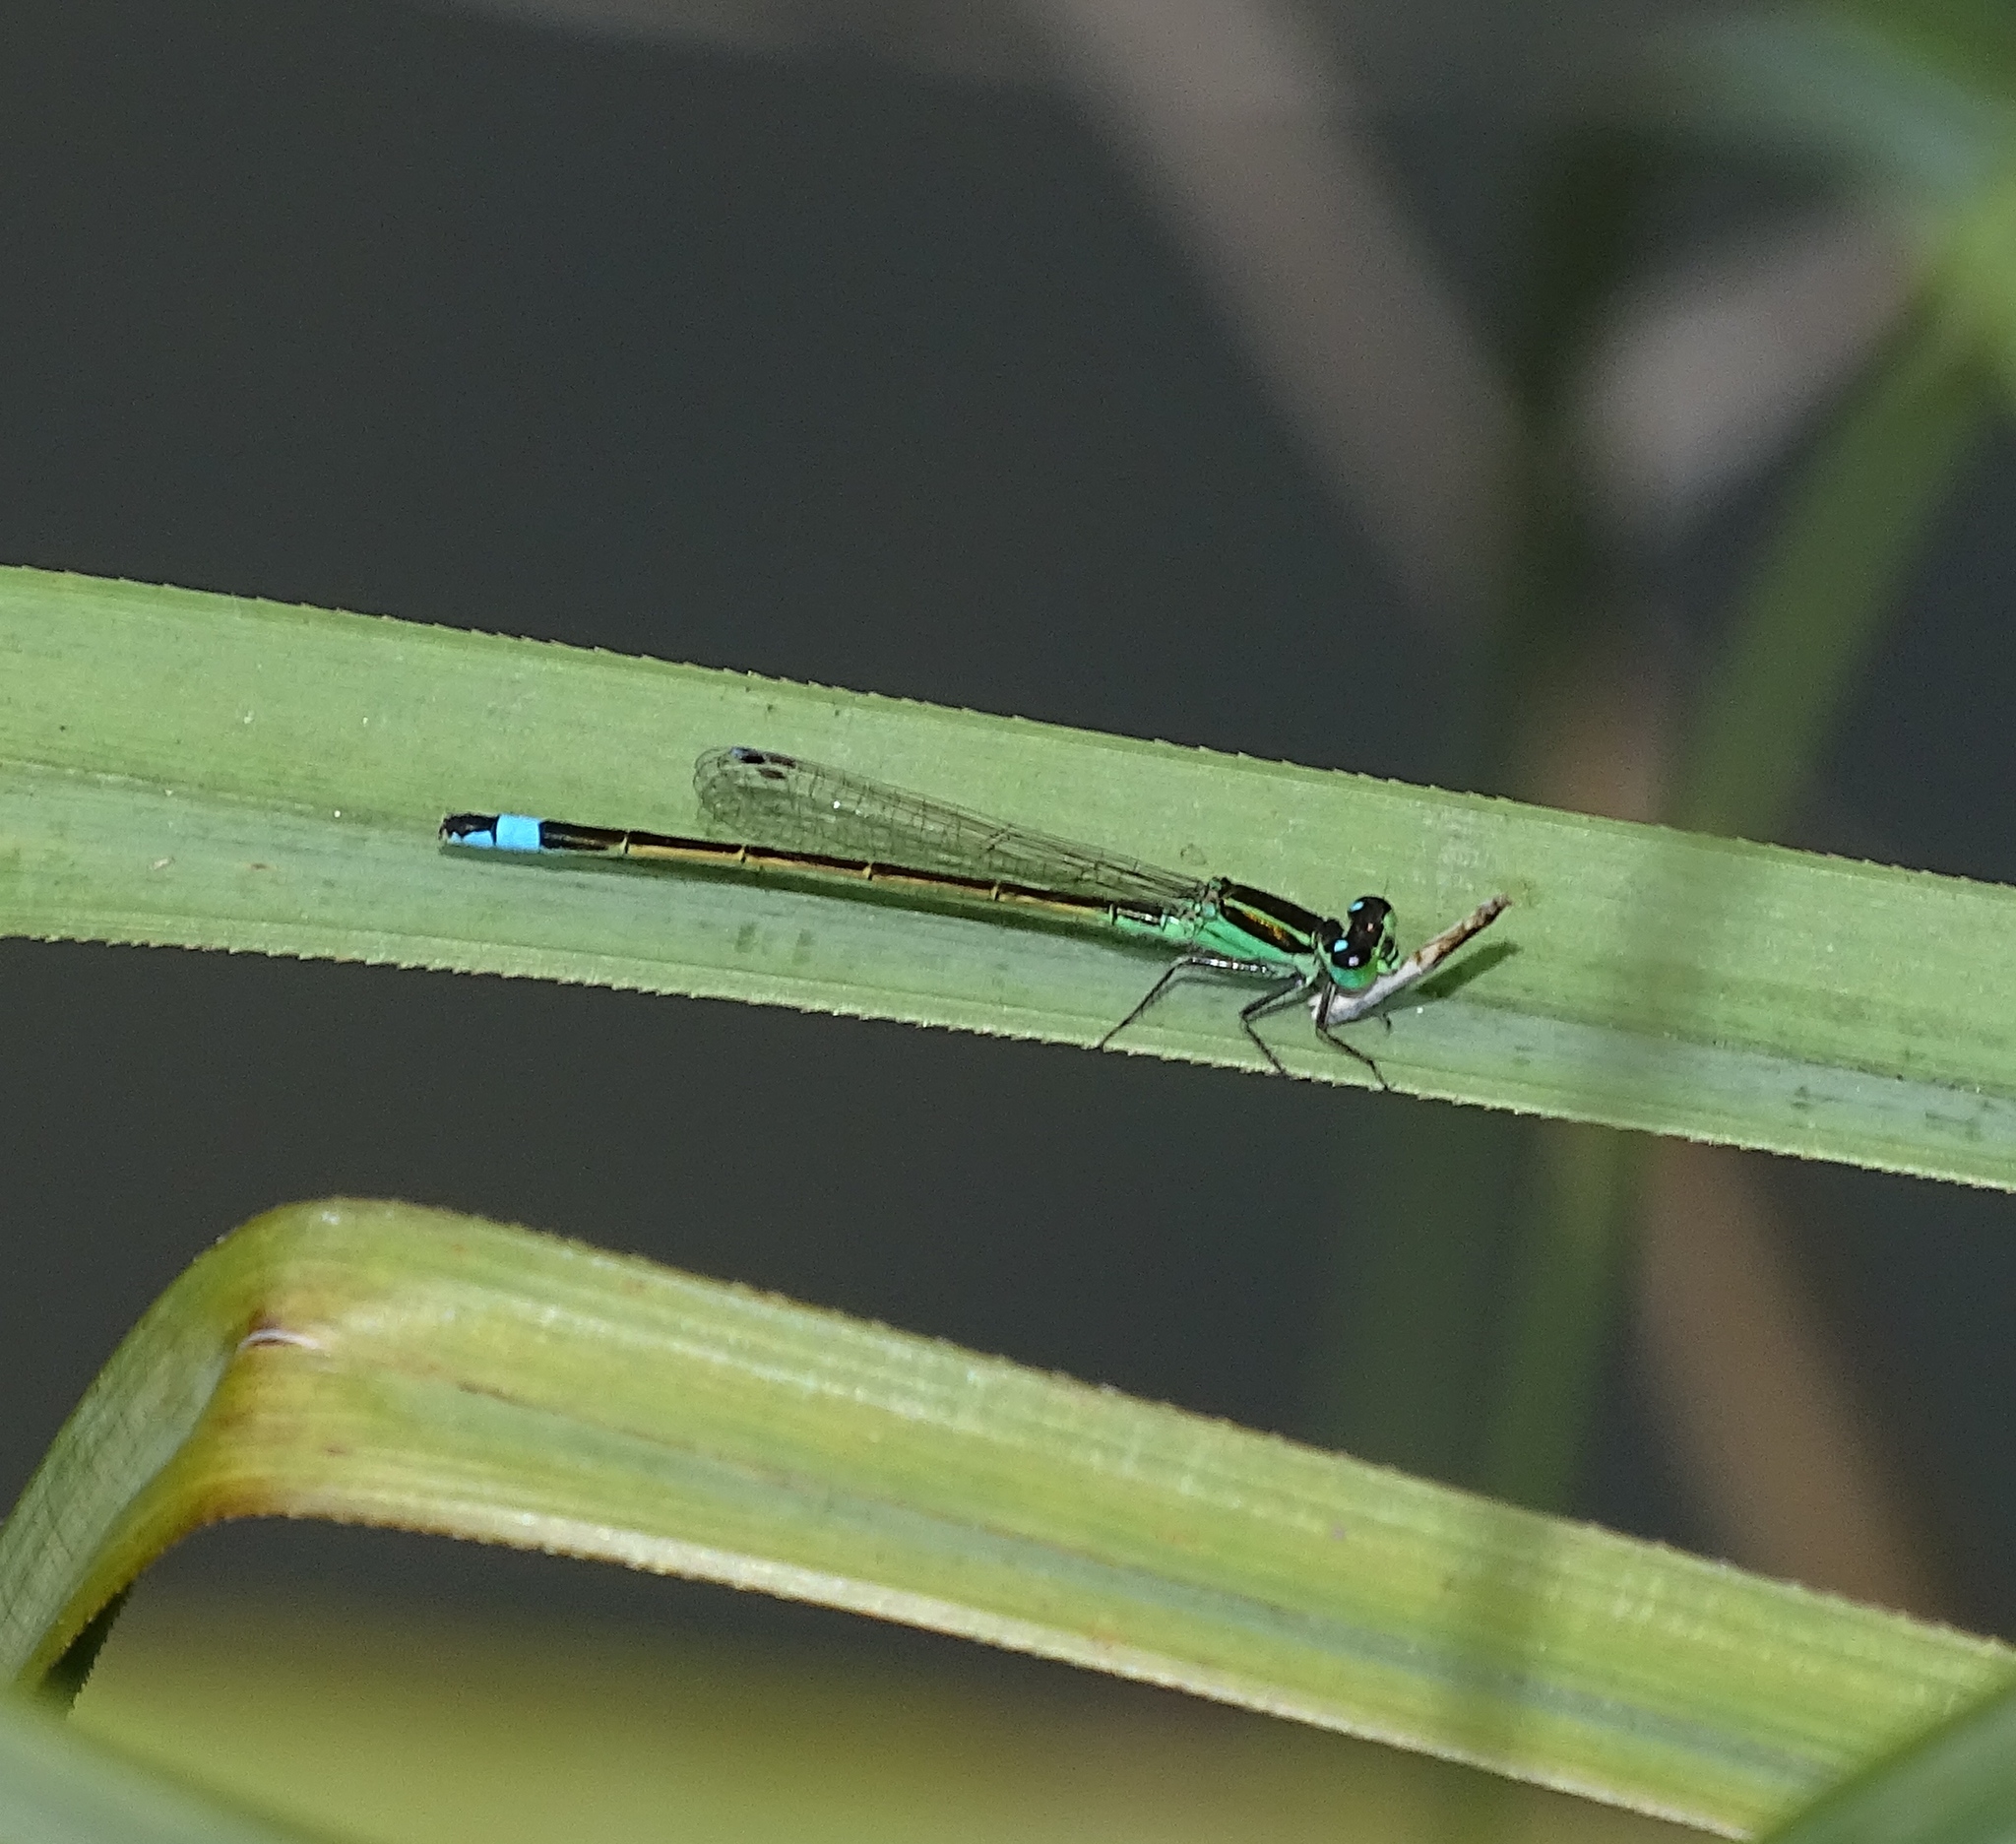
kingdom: Animalia
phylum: Arthropoda
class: Insecta
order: Odonata
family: Coenagrionidae
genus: Ischnura
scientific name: Ischnura ramburii
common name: Rambur's forktail
